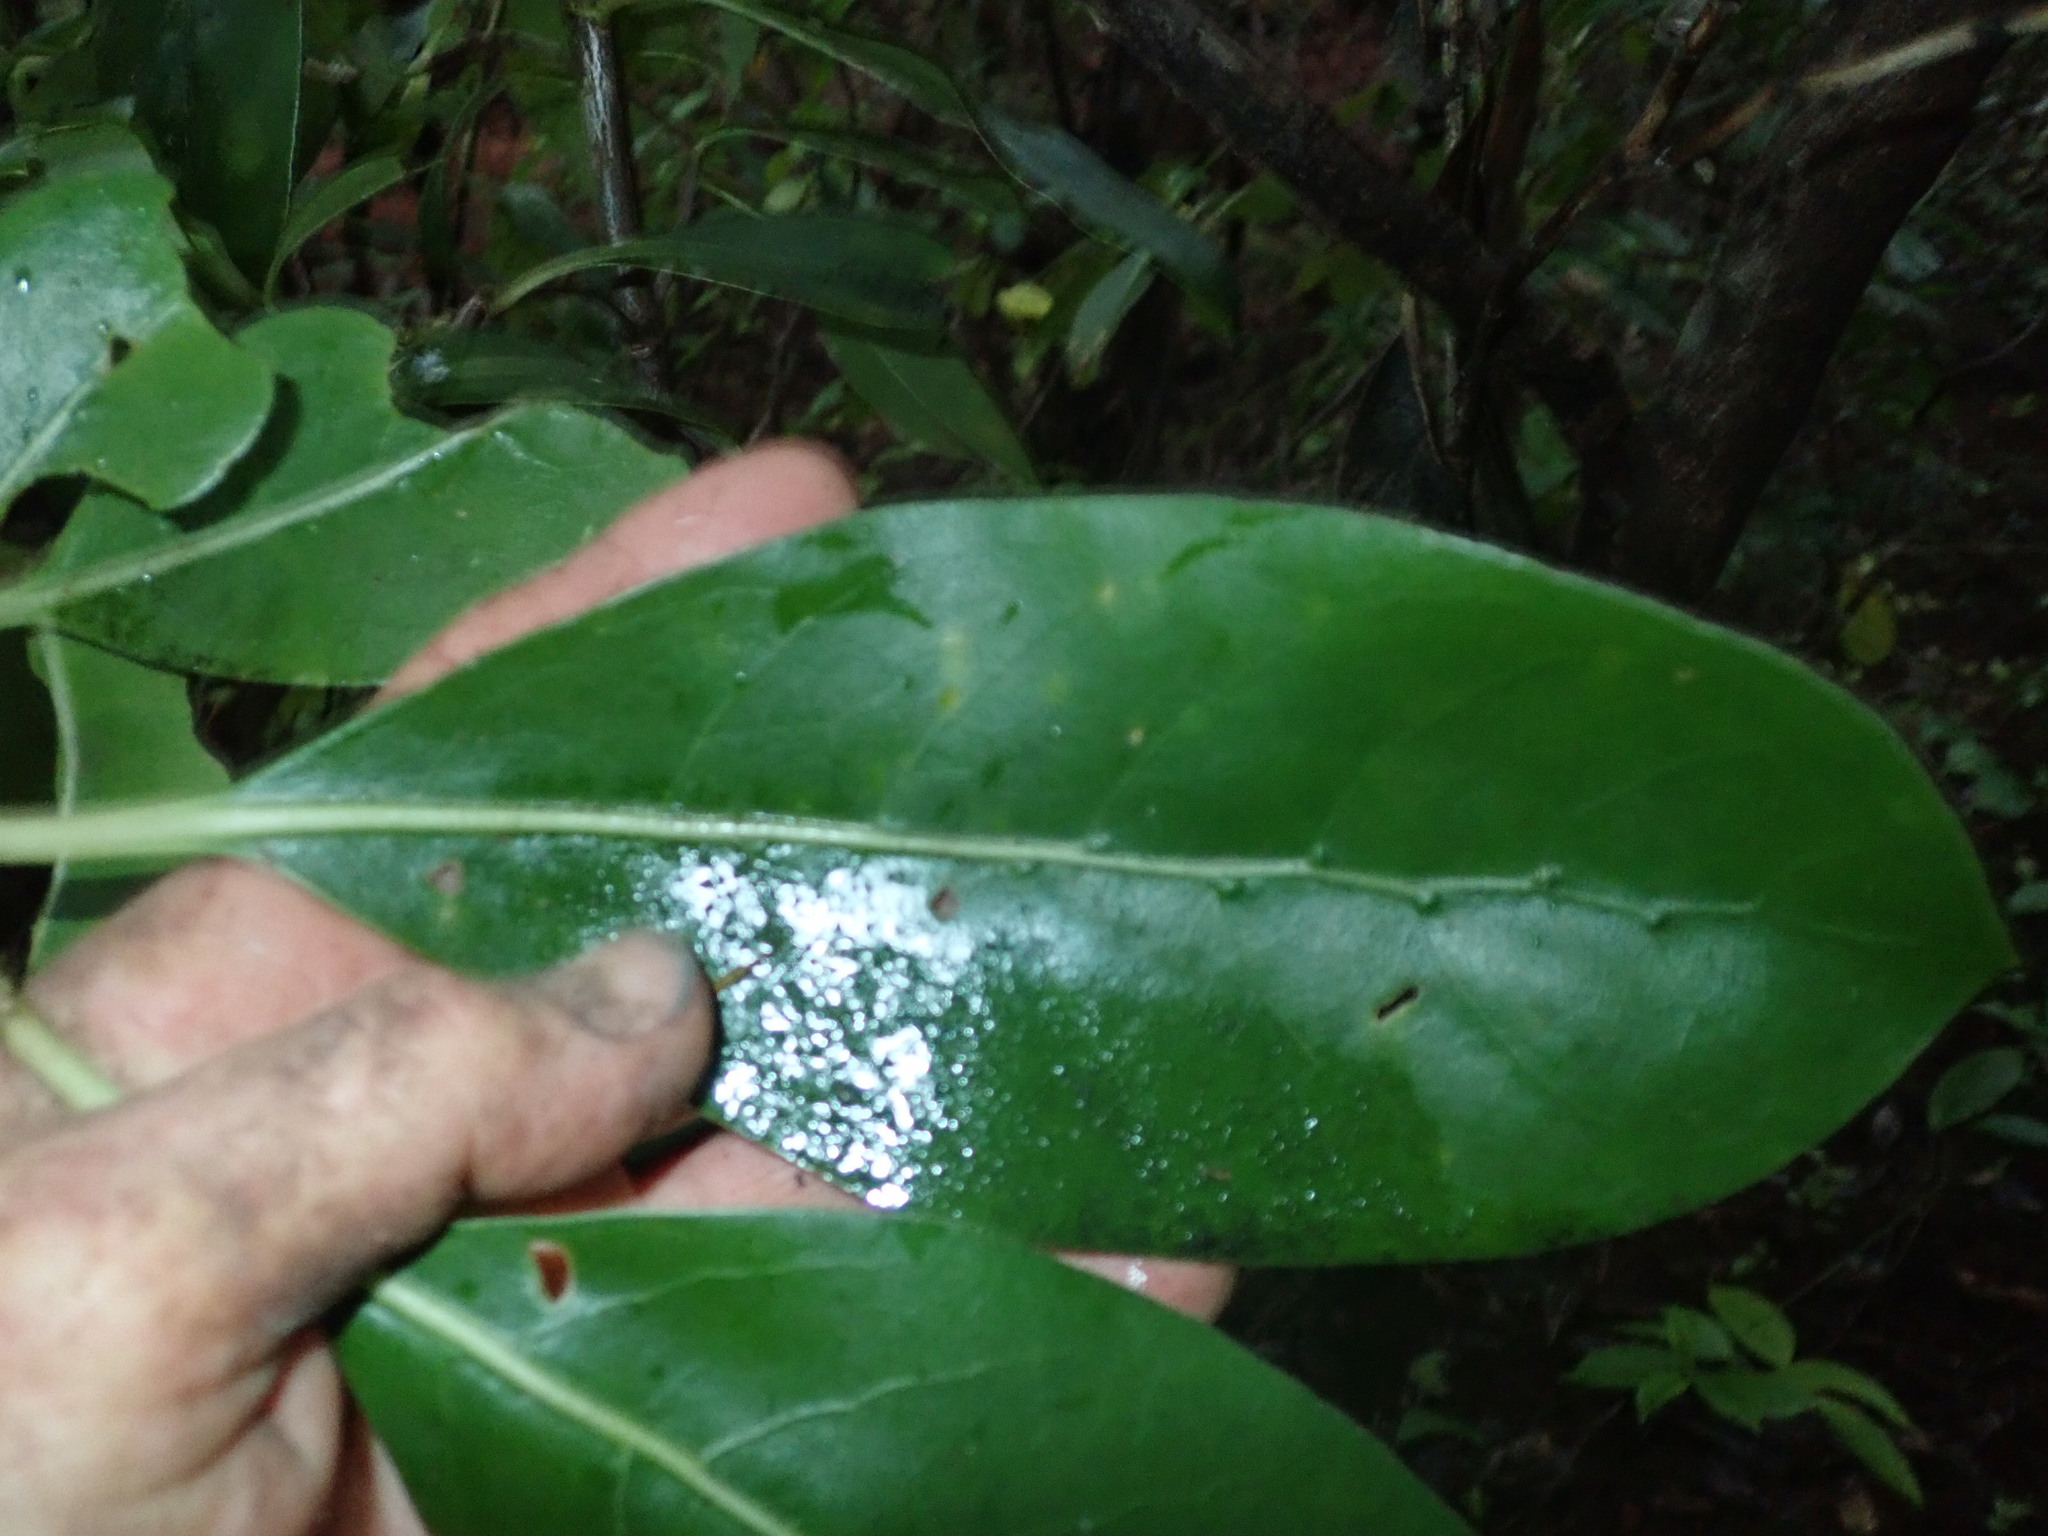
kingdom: Plantae
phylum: Tracheophyta
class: Magnoliopsida
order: Gentianales
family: Rubiaceae
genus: Coprosma
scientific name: Coprosma lucida
